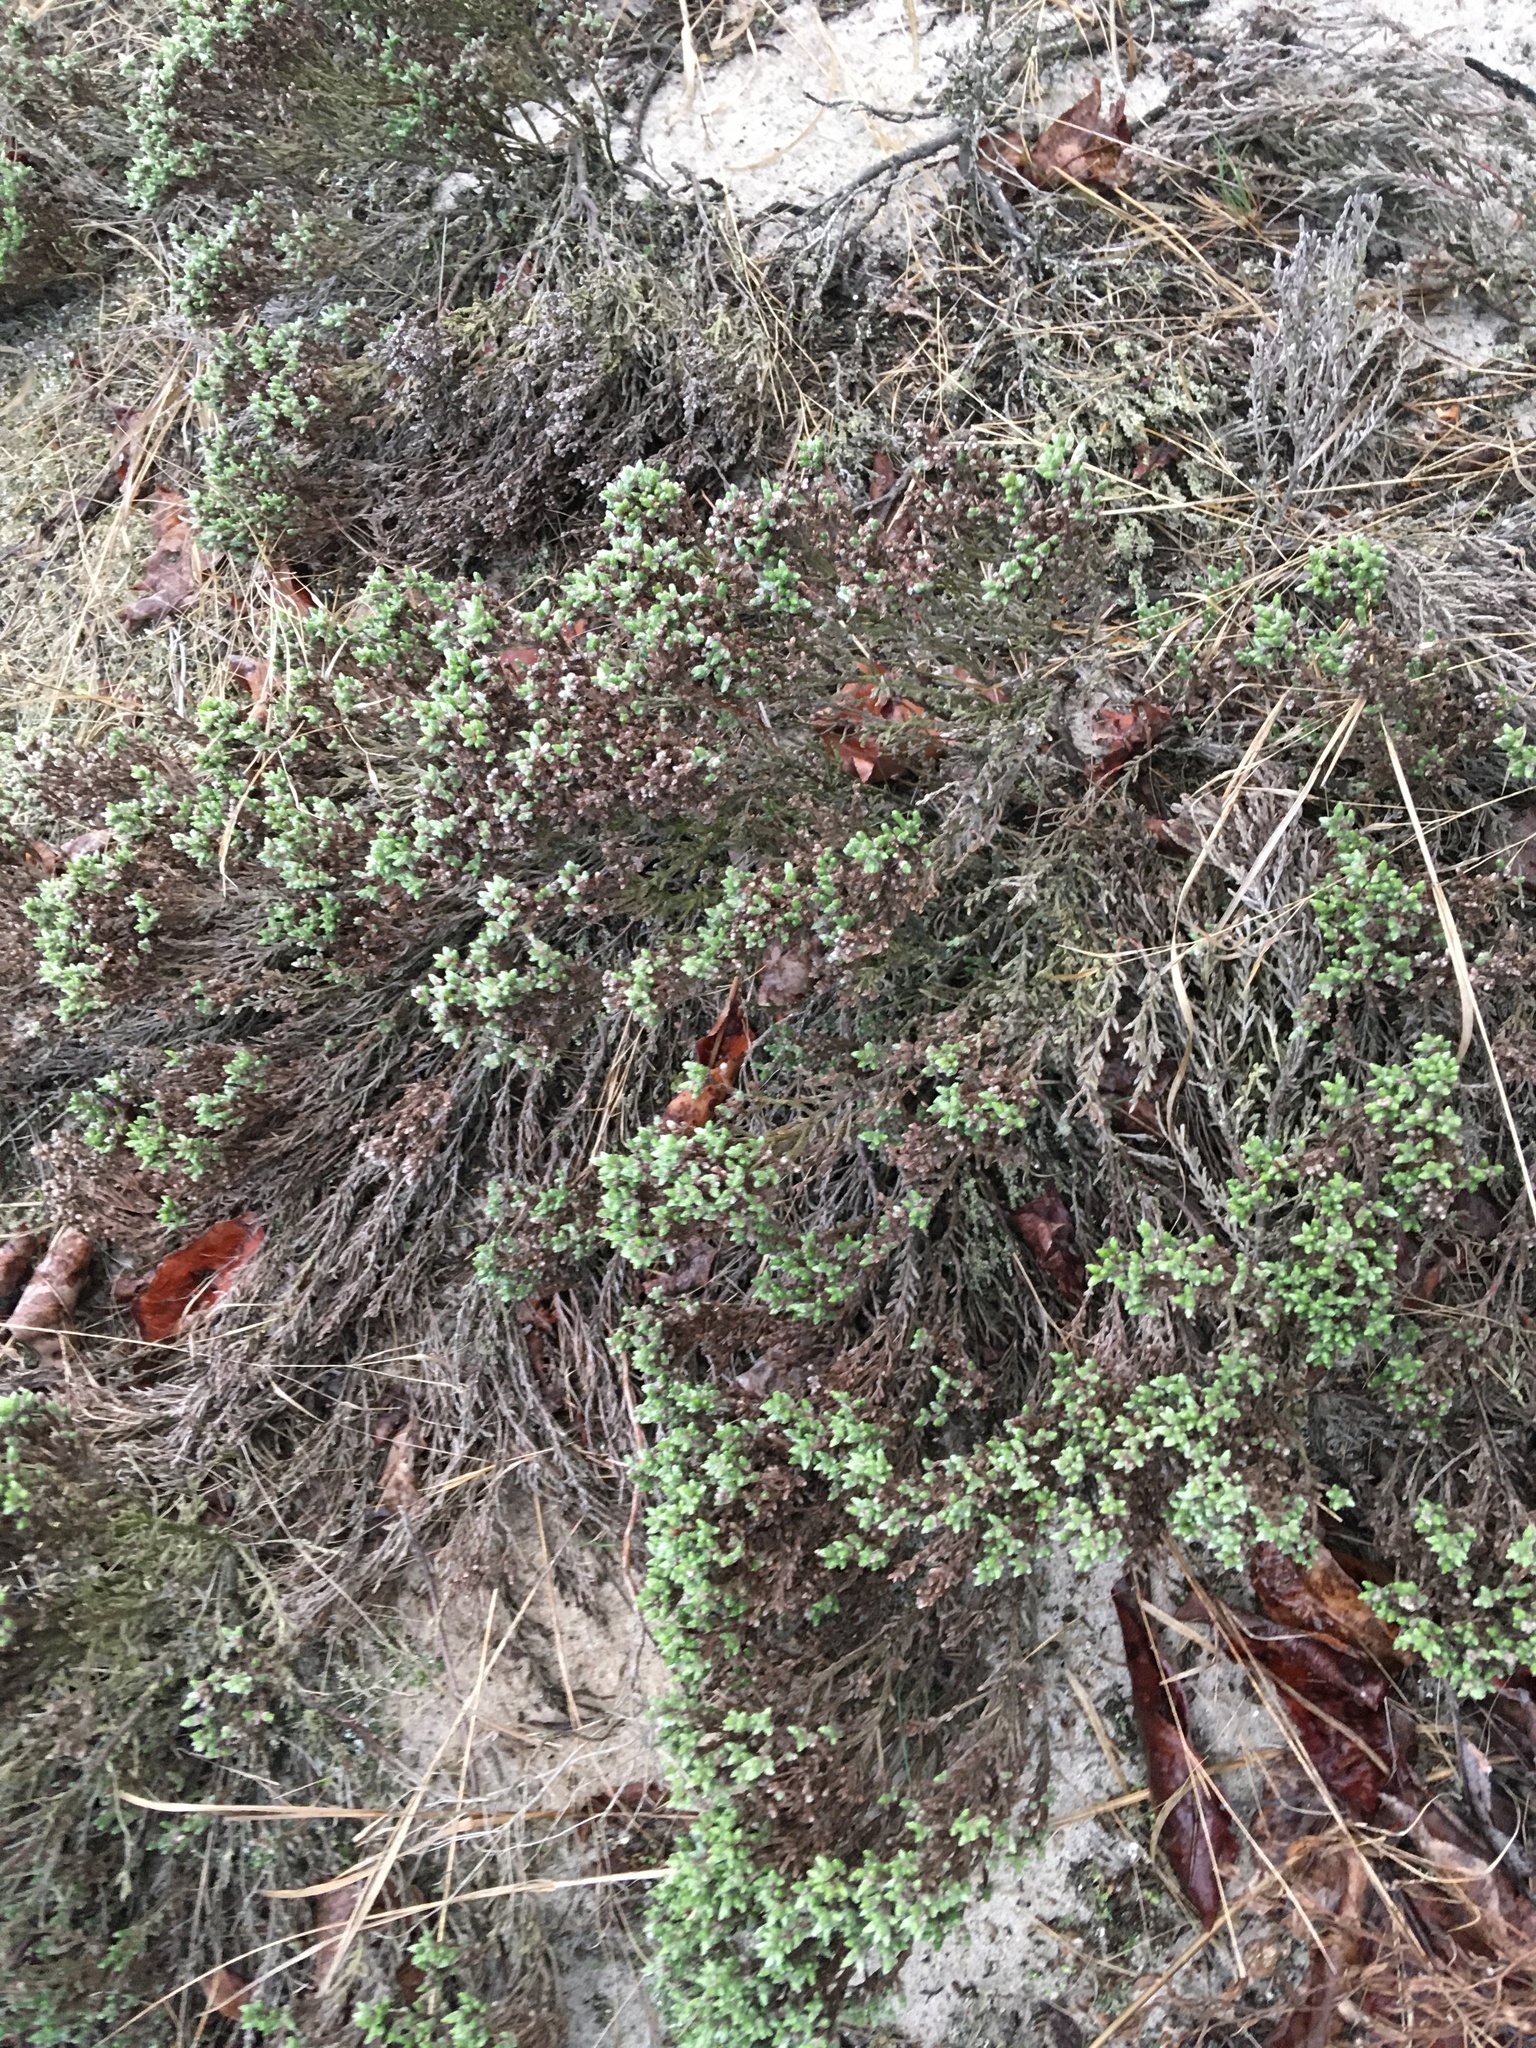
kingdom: Plantae
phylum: Tracheophyta
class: Magnoliopsida
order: Malvales
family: Cistaceae
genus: Hudsonia
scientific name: Hudsonia tomentosa
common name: Beach-heath
